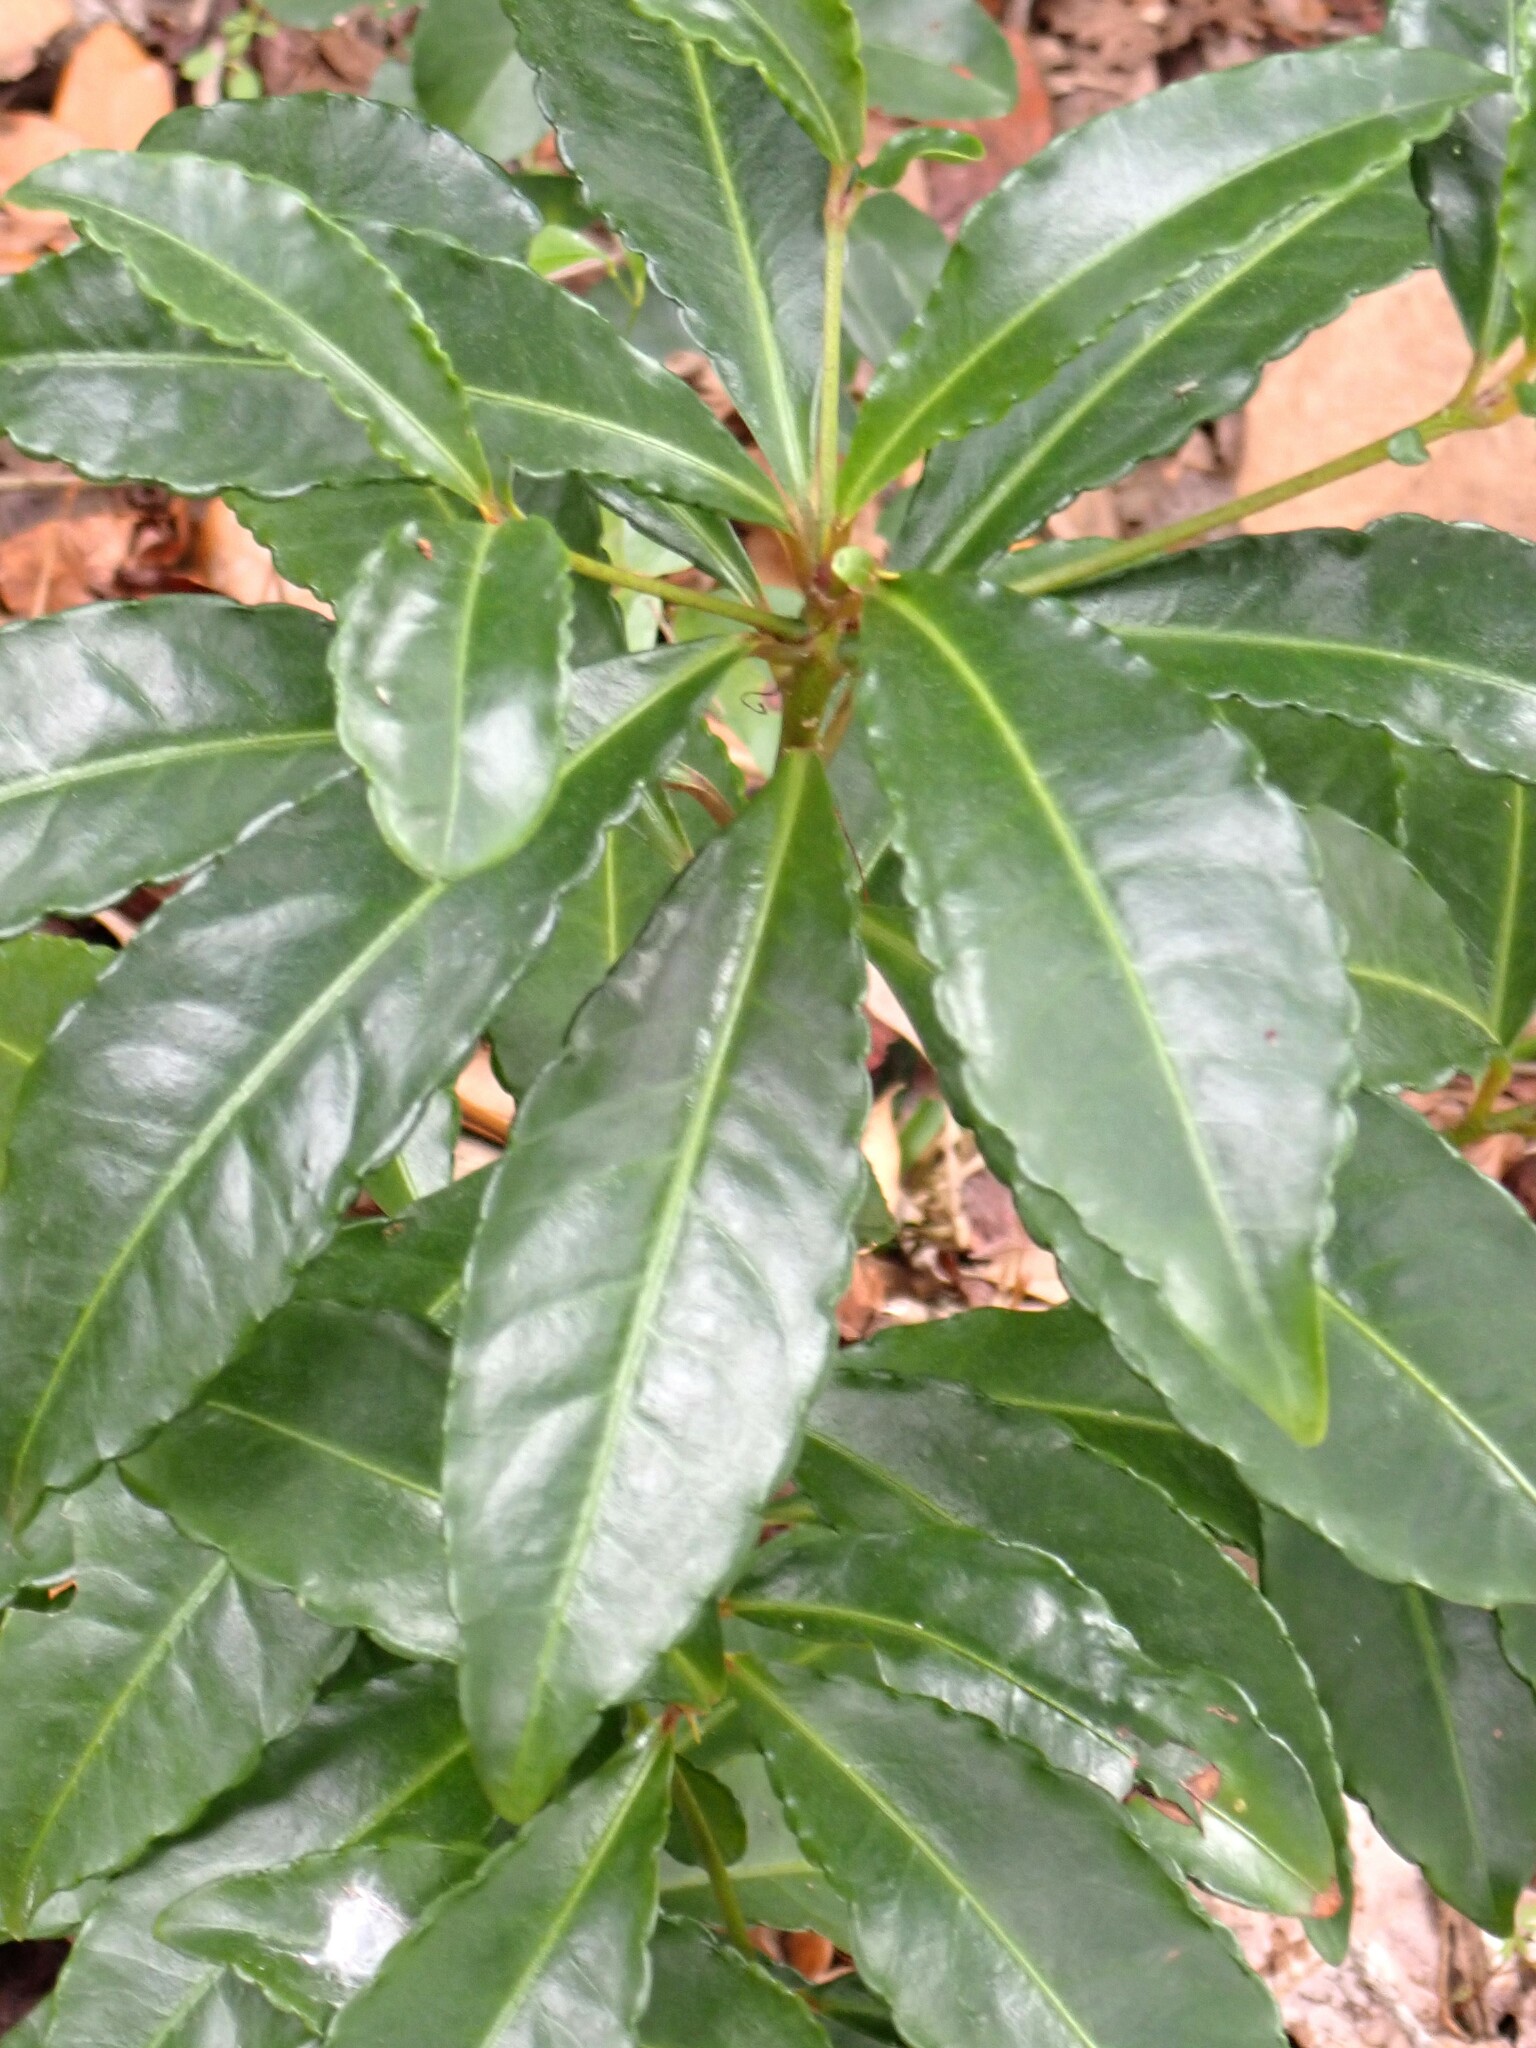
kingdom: Plantae
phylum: Tracheophyta
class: Magnoliopsida
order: Ericales
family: Primulaceae
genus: Ardisia
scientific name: Ardisia crenata
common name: Hen's eyes
